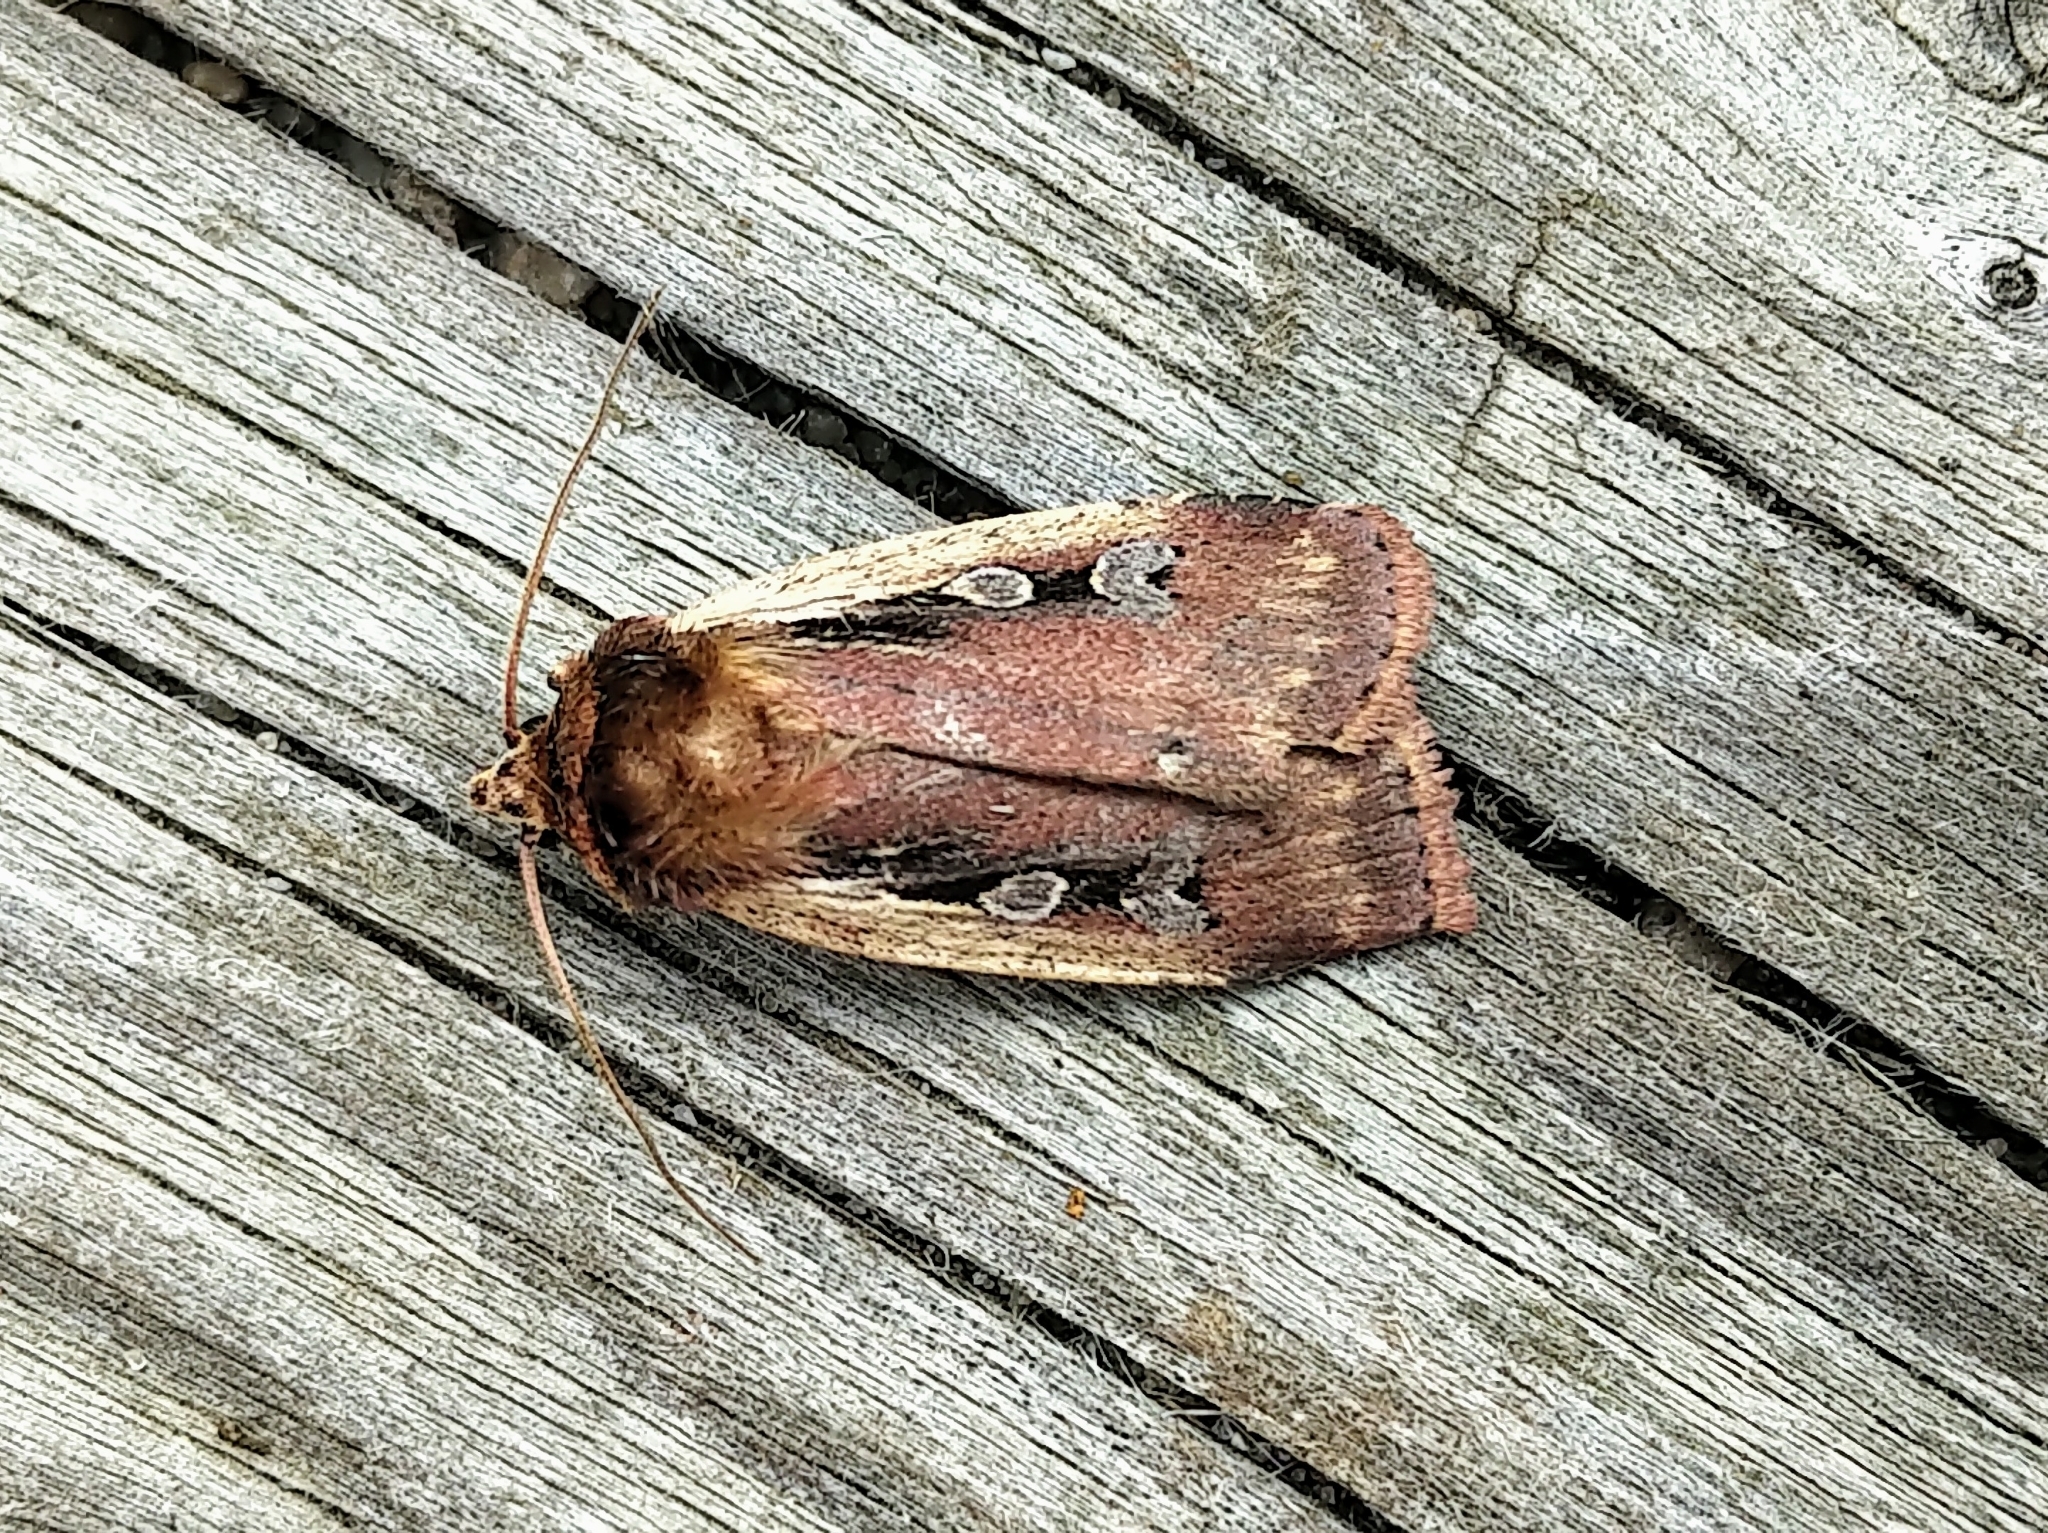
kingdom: Animalia
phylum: Arthropoda
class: Insecta
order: Lepidoptera
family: Noctuidae
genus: Ochropleura
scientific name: Ochropleura implecta
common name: Flame-shouldered dart
